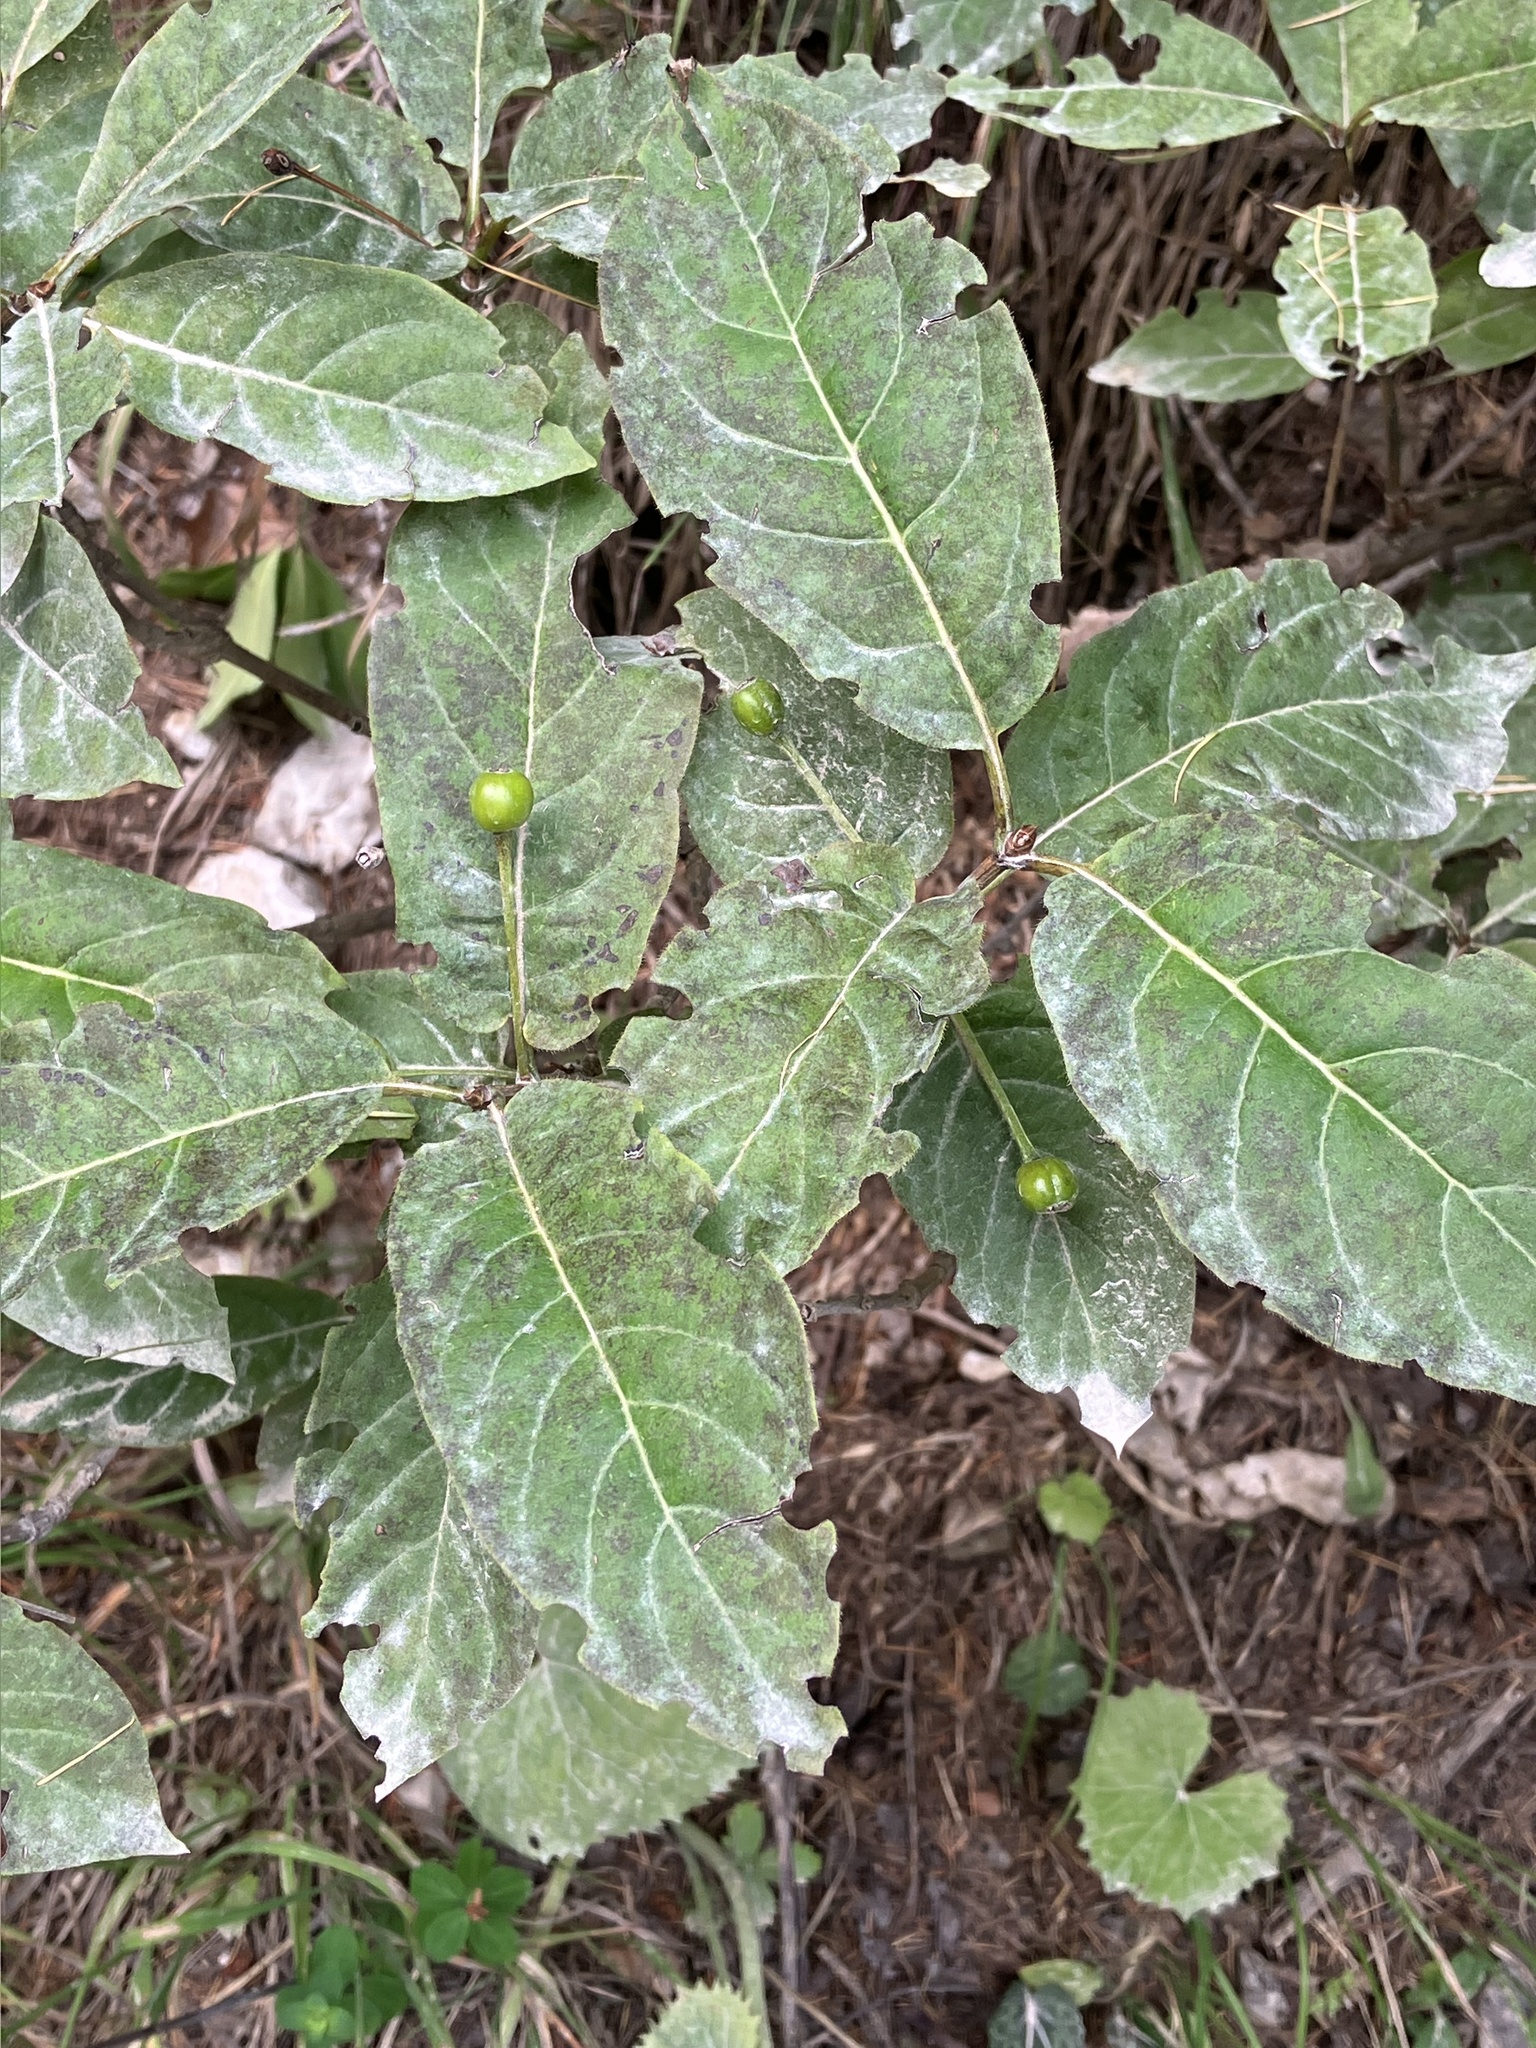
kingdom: Plantae
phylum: Tracheophyta
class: Magnoliopsida
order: Dipsacales
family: Caprifoliaceae
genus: Lonicera
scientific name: Lonicera alpigena
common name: Alpine honeysuckle
